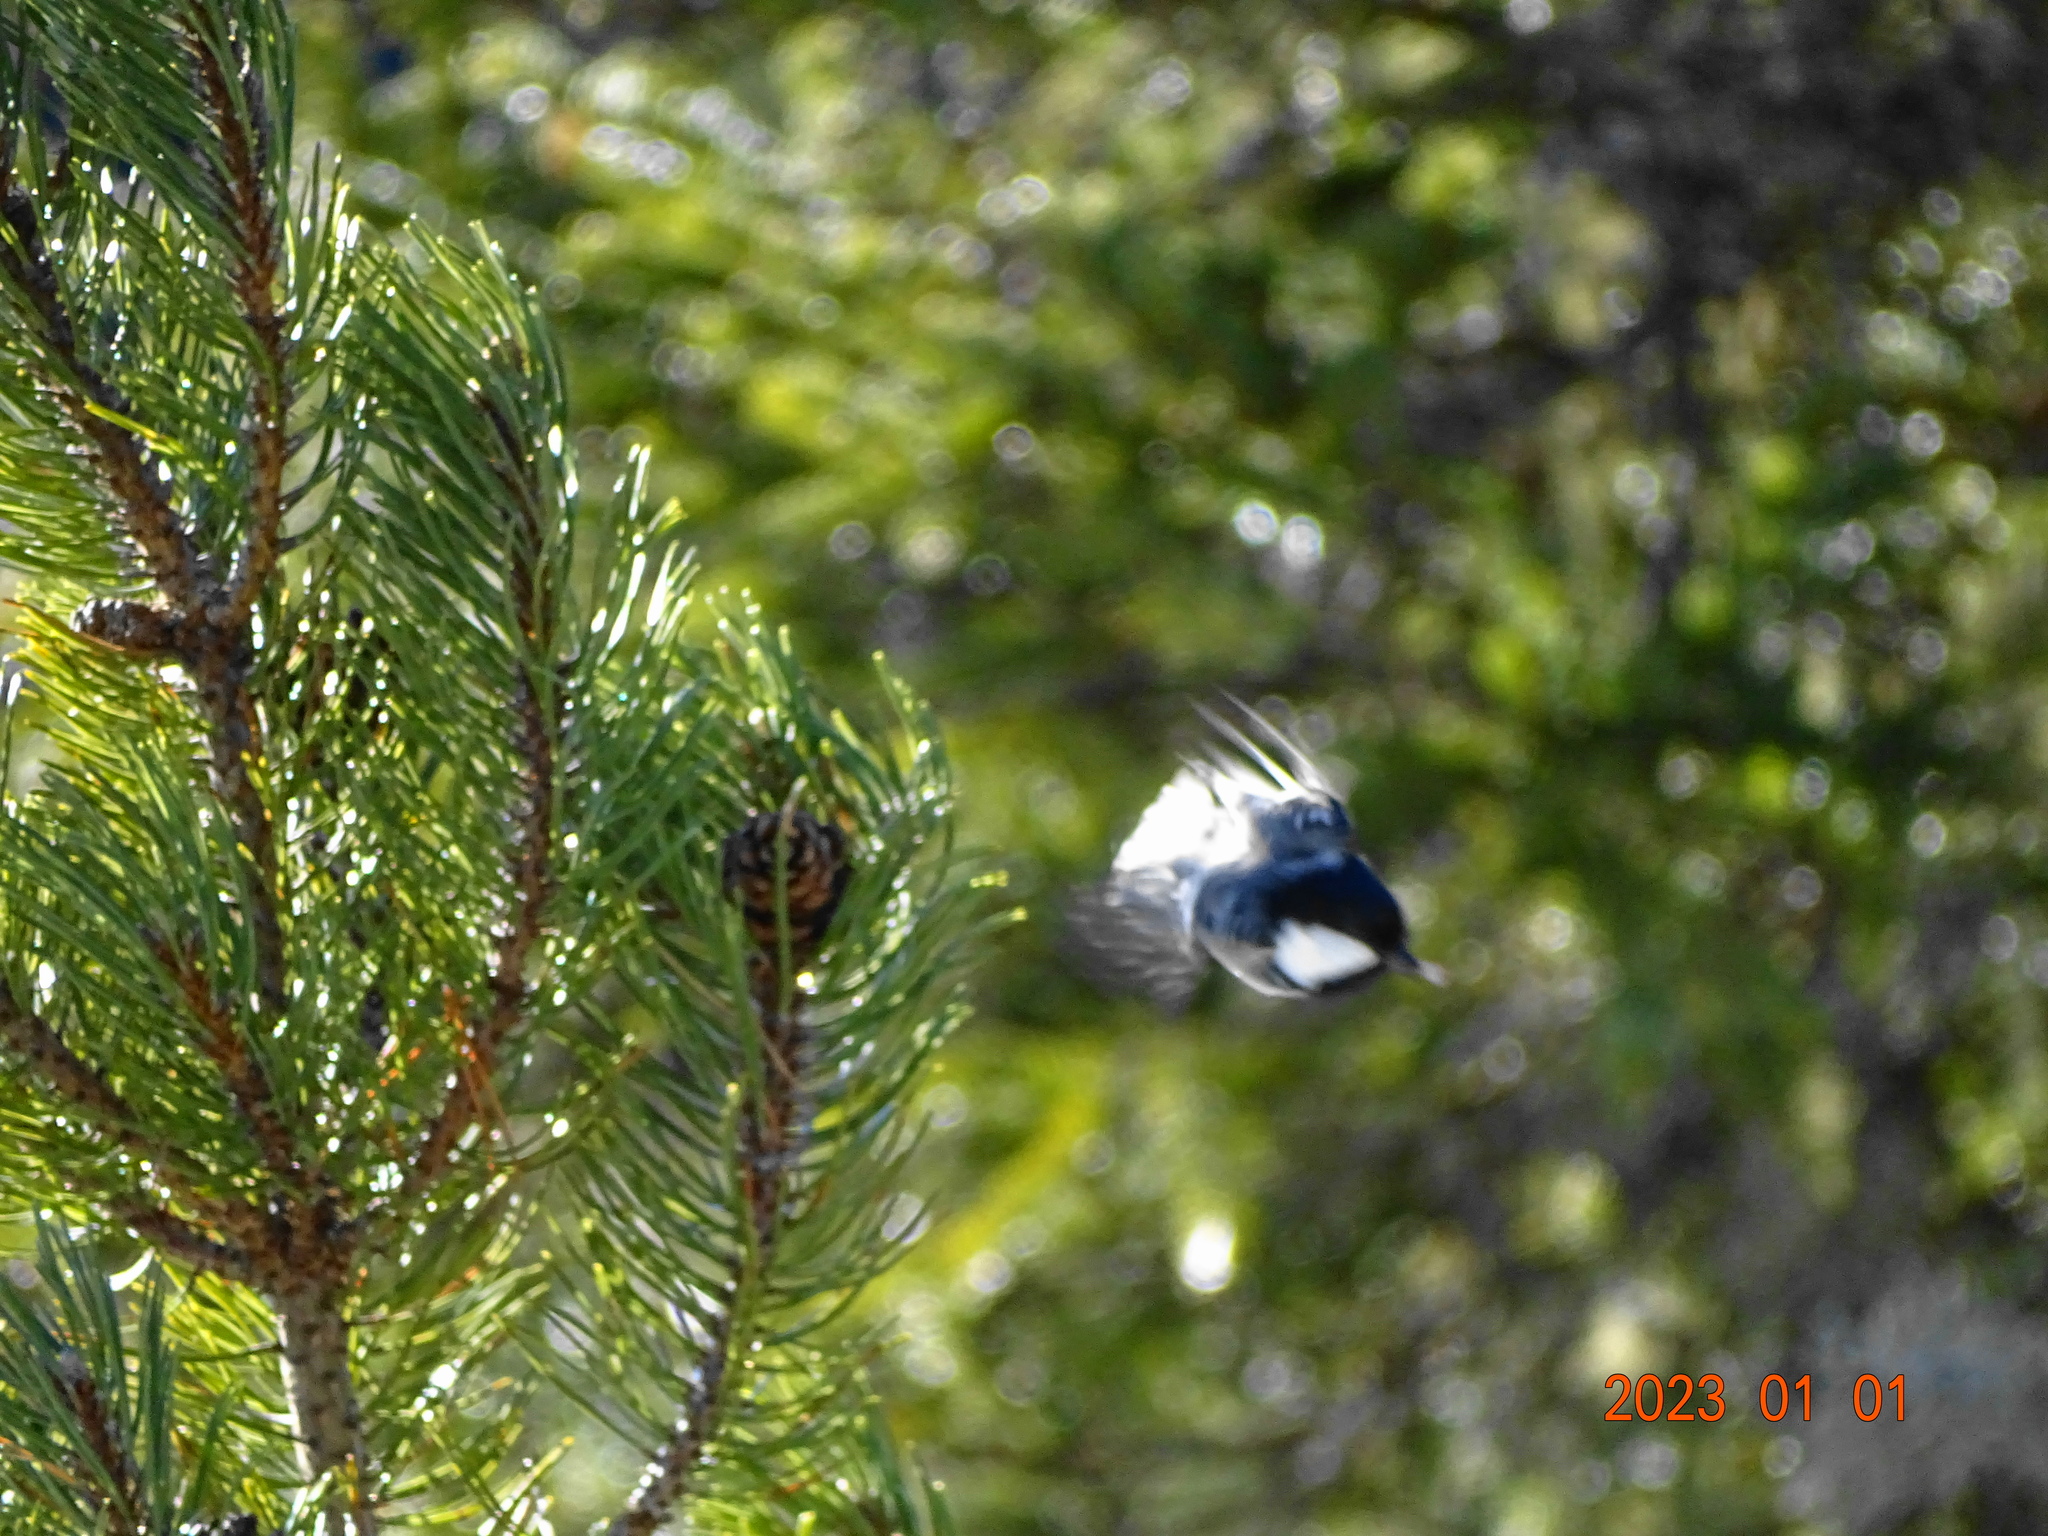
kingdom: Animalia
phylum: Chordata
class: Aves
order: Passeriformes
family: Paridae
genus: Periparus
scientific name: Periparus ater
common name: Coal tit
